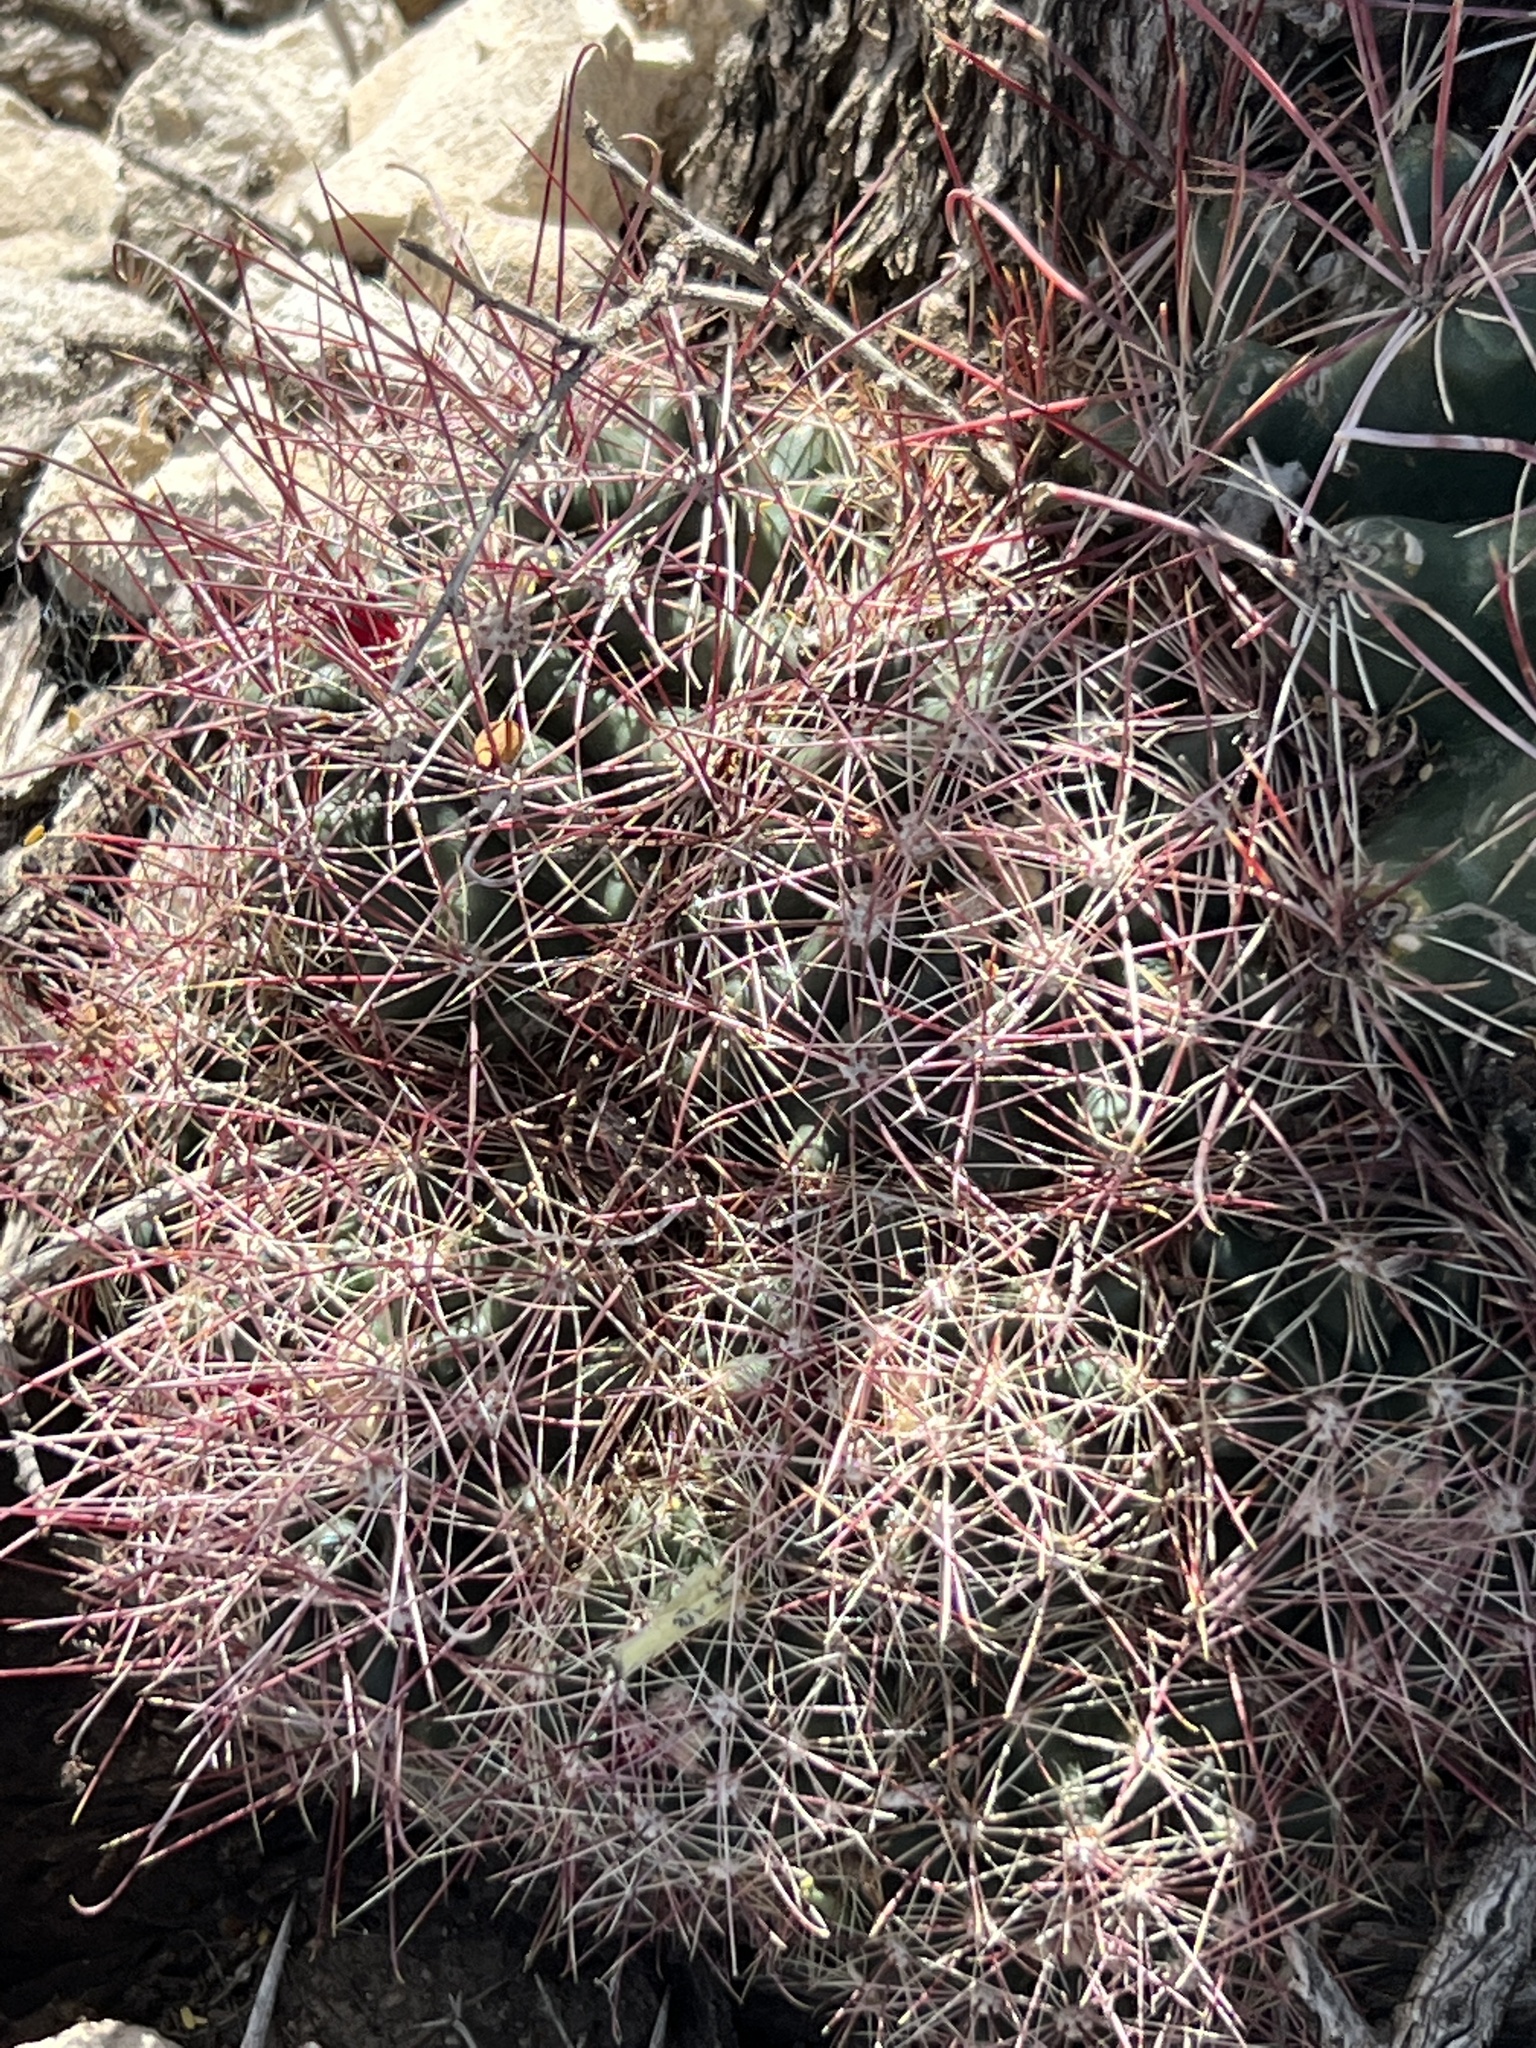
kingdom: Plantae
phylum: Tracheophyta
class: Magnoliopsida
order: Caryophyllales
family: Cactaceae
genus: Bisnaga
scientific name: Bisnaga hamatacantha
